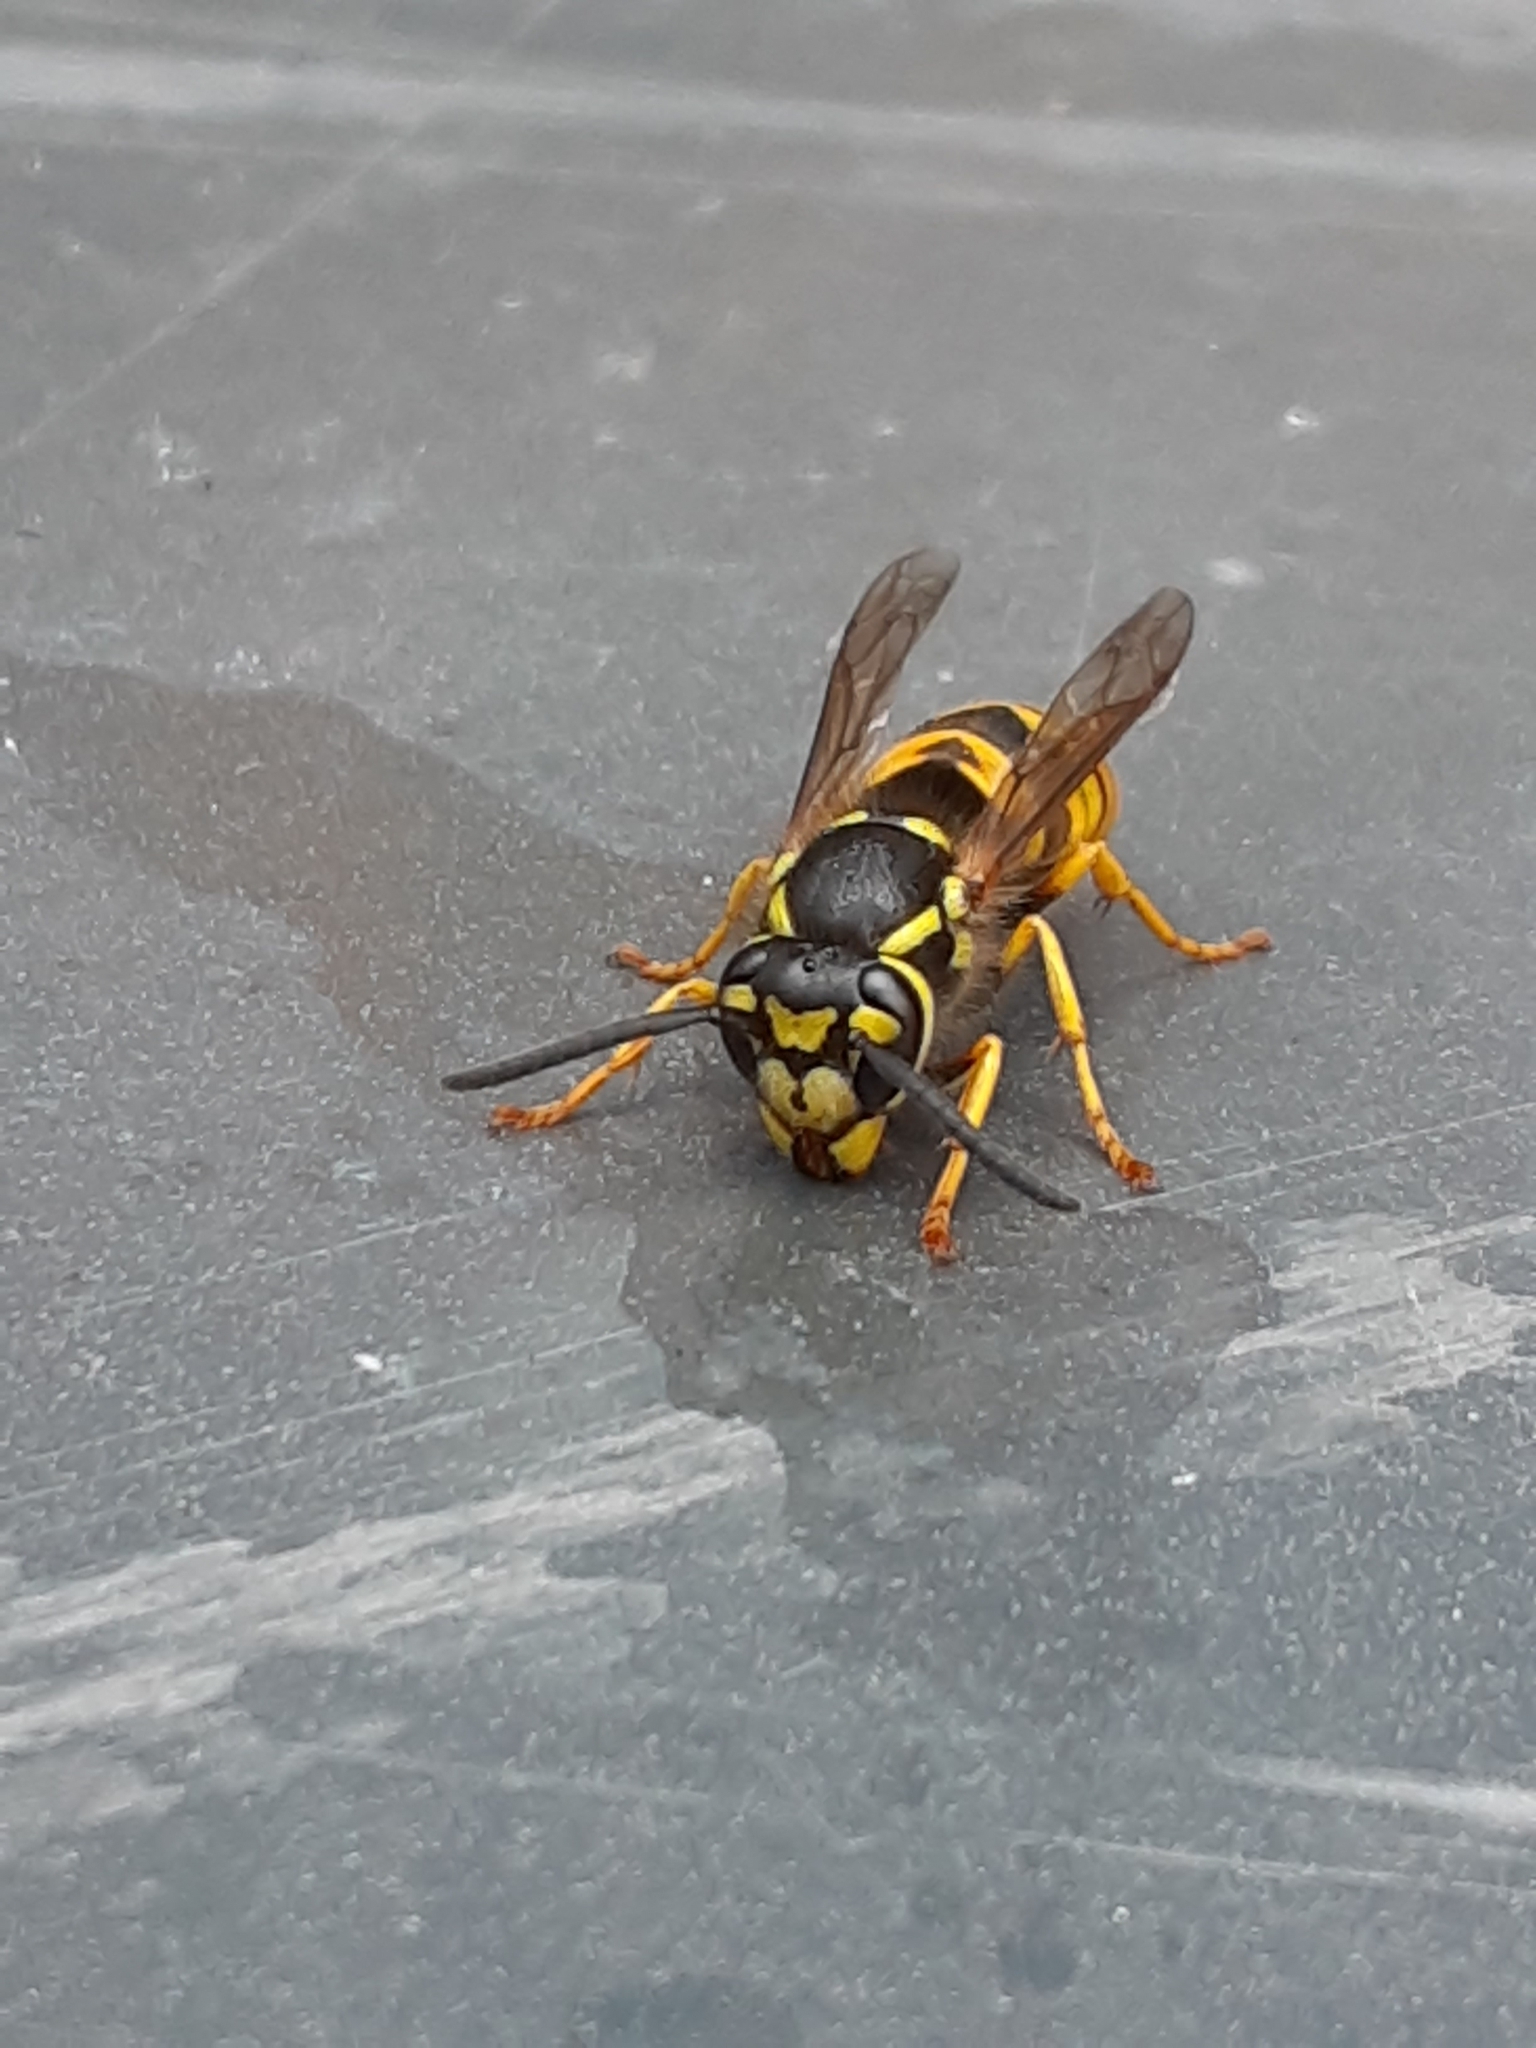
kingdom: Animalia
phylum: Arthropoda
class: Insecta
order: Hymenoptera
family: Vespidae
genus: Vespula
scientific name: Vespula germanica
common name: German wasp
